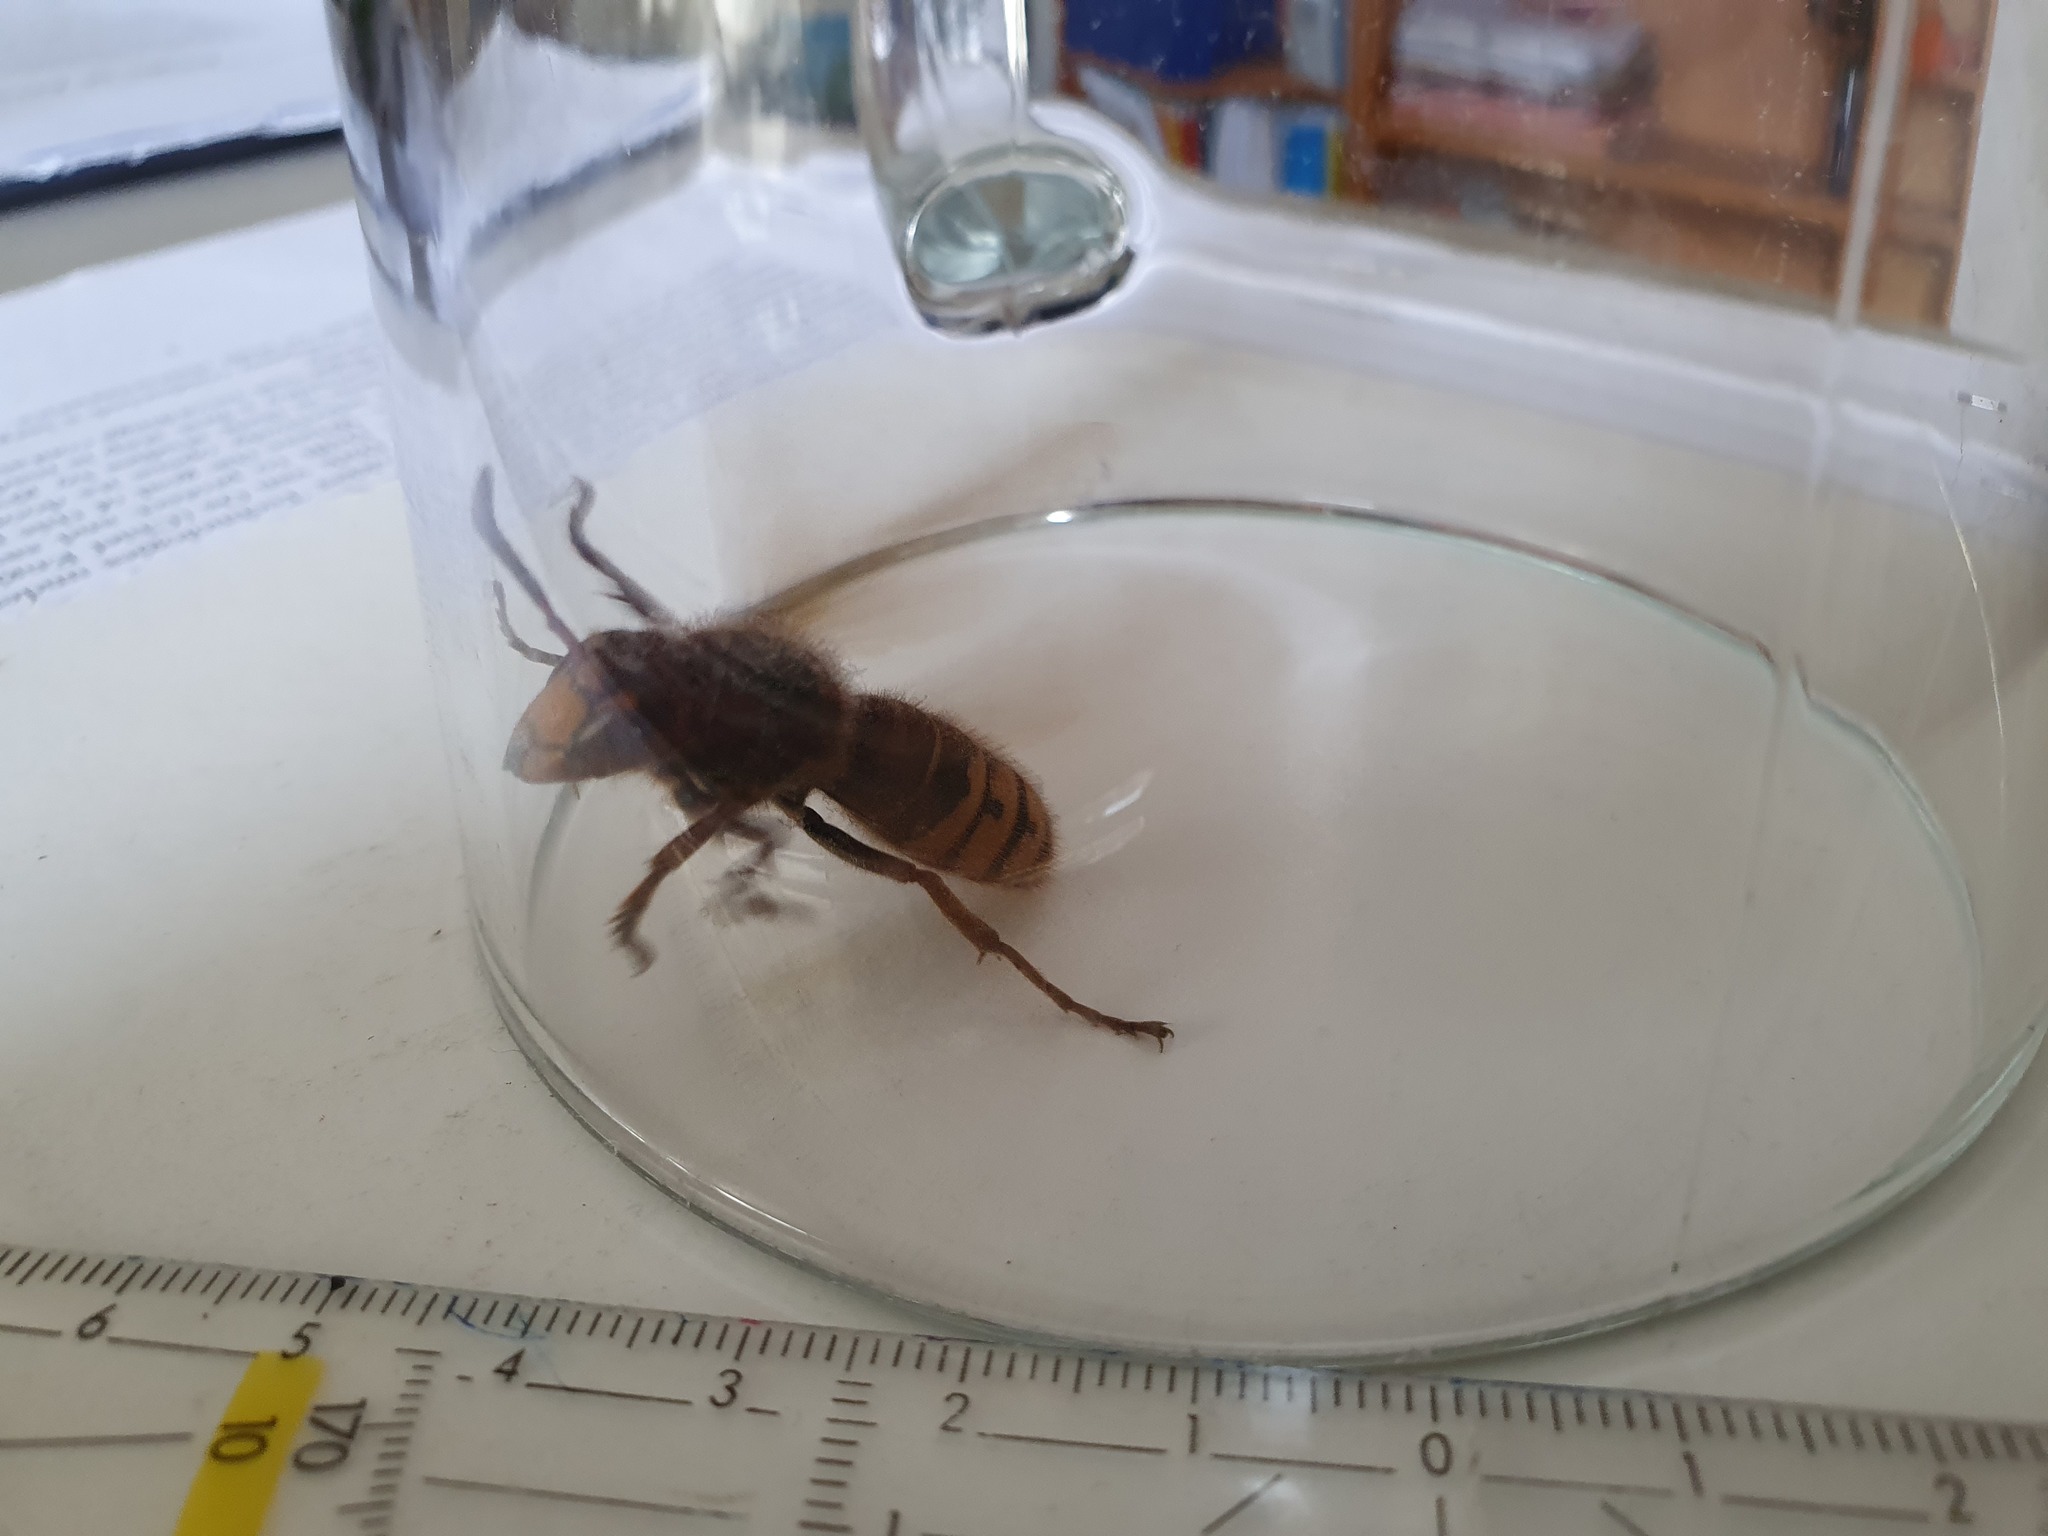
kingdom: Animalia
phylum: Arthropoda
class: Insecta
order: Hymenoptera
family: Vespidae
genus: Vespa
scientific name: Vespa crabro
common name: Hornet
